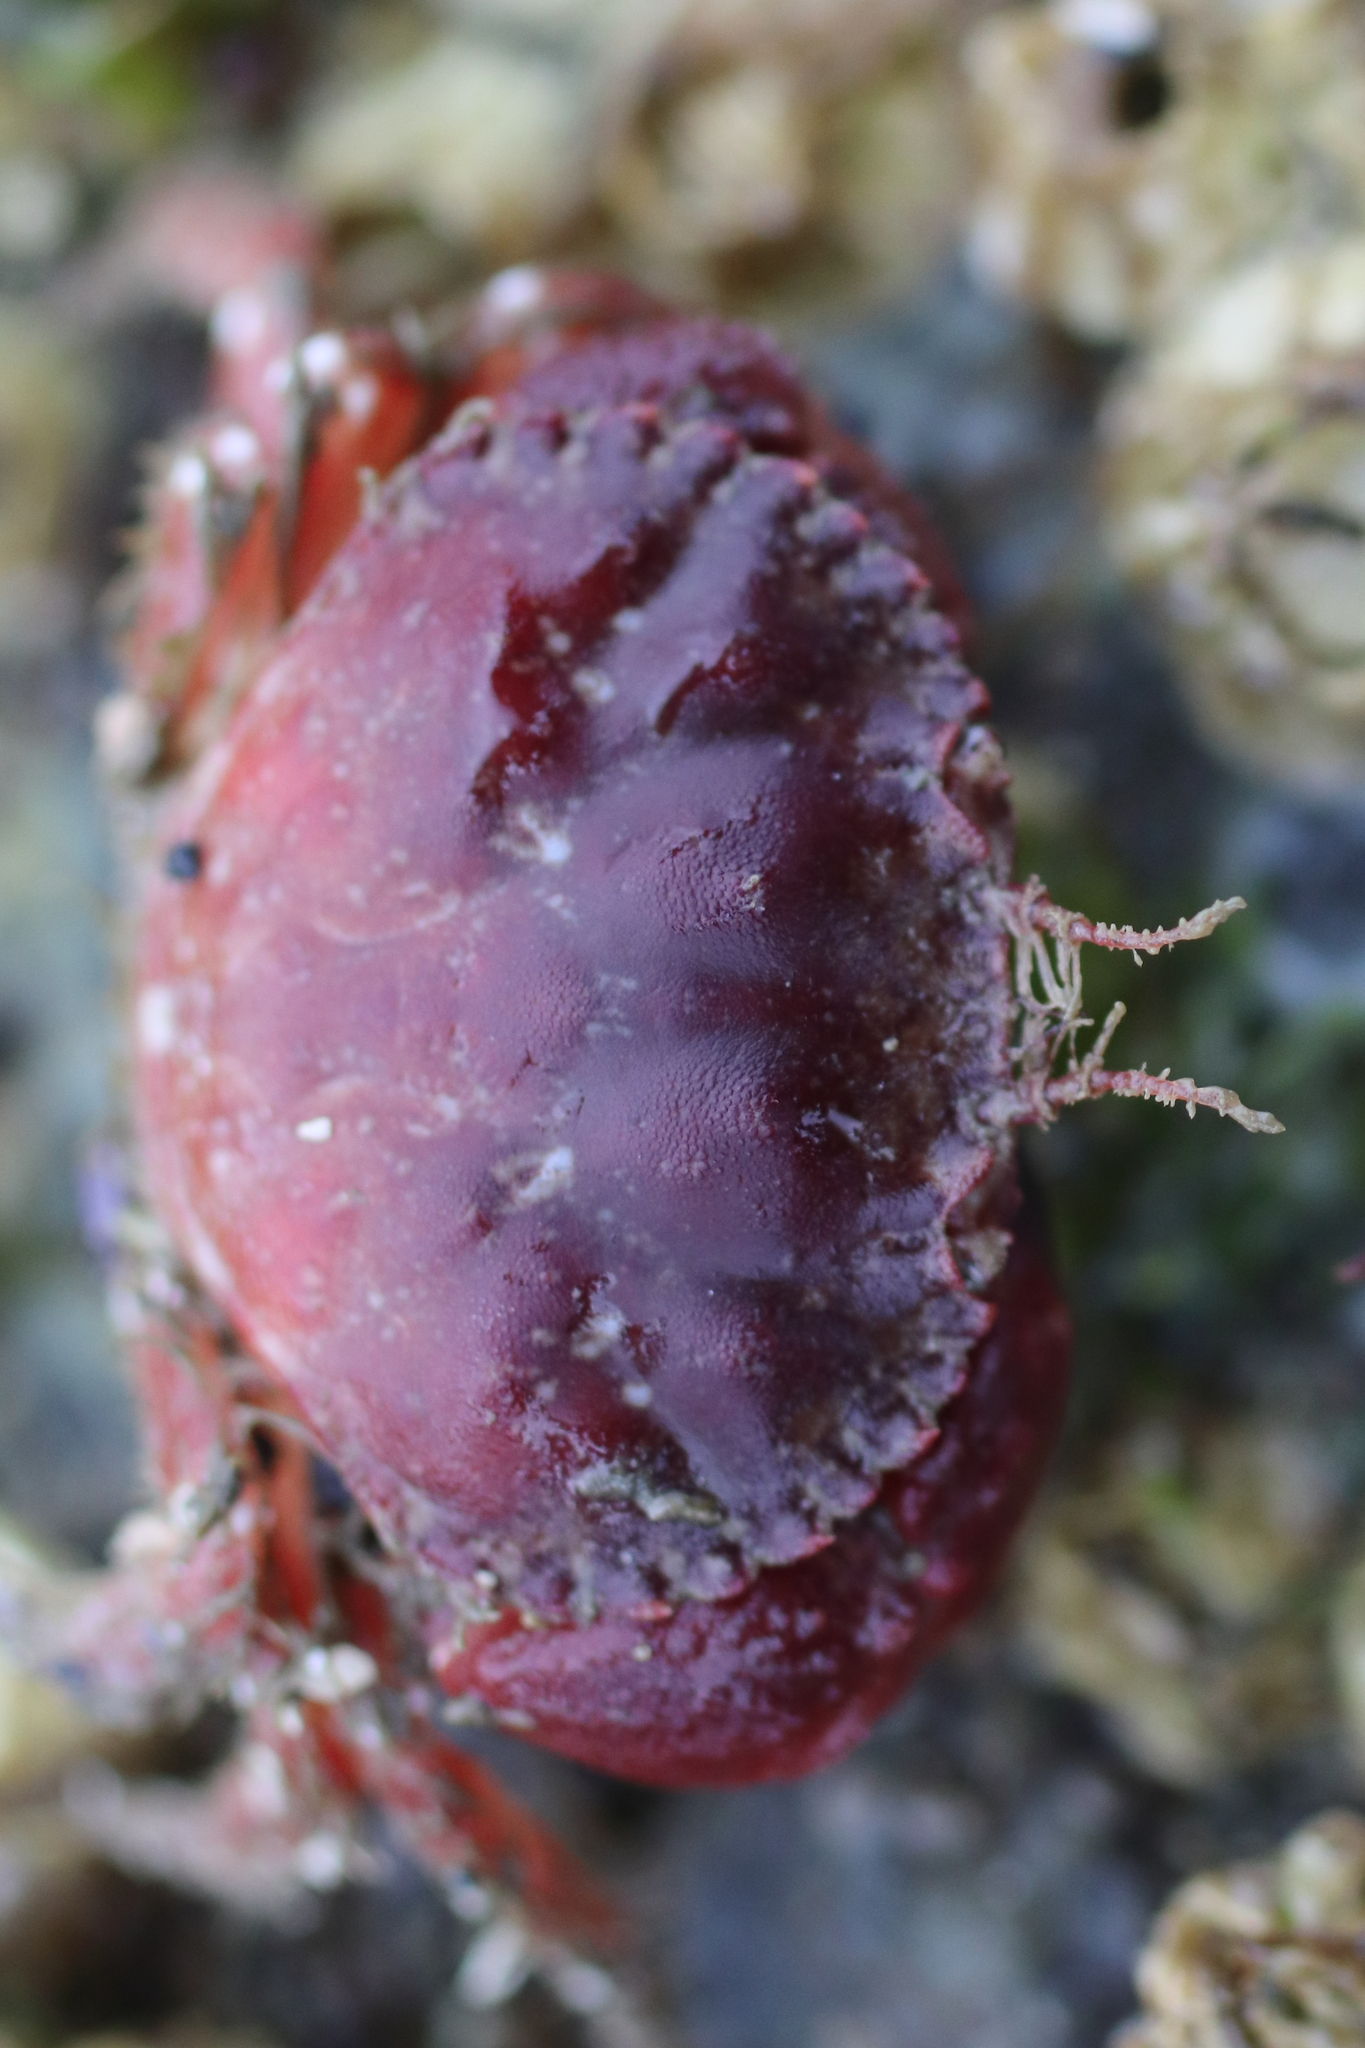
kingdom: Animalia
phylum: Arthropoda
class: Malacostraca
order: Decapoda
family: Cancridae
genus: Glebocarcinus
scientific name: Glebocarcinus oregonensis
